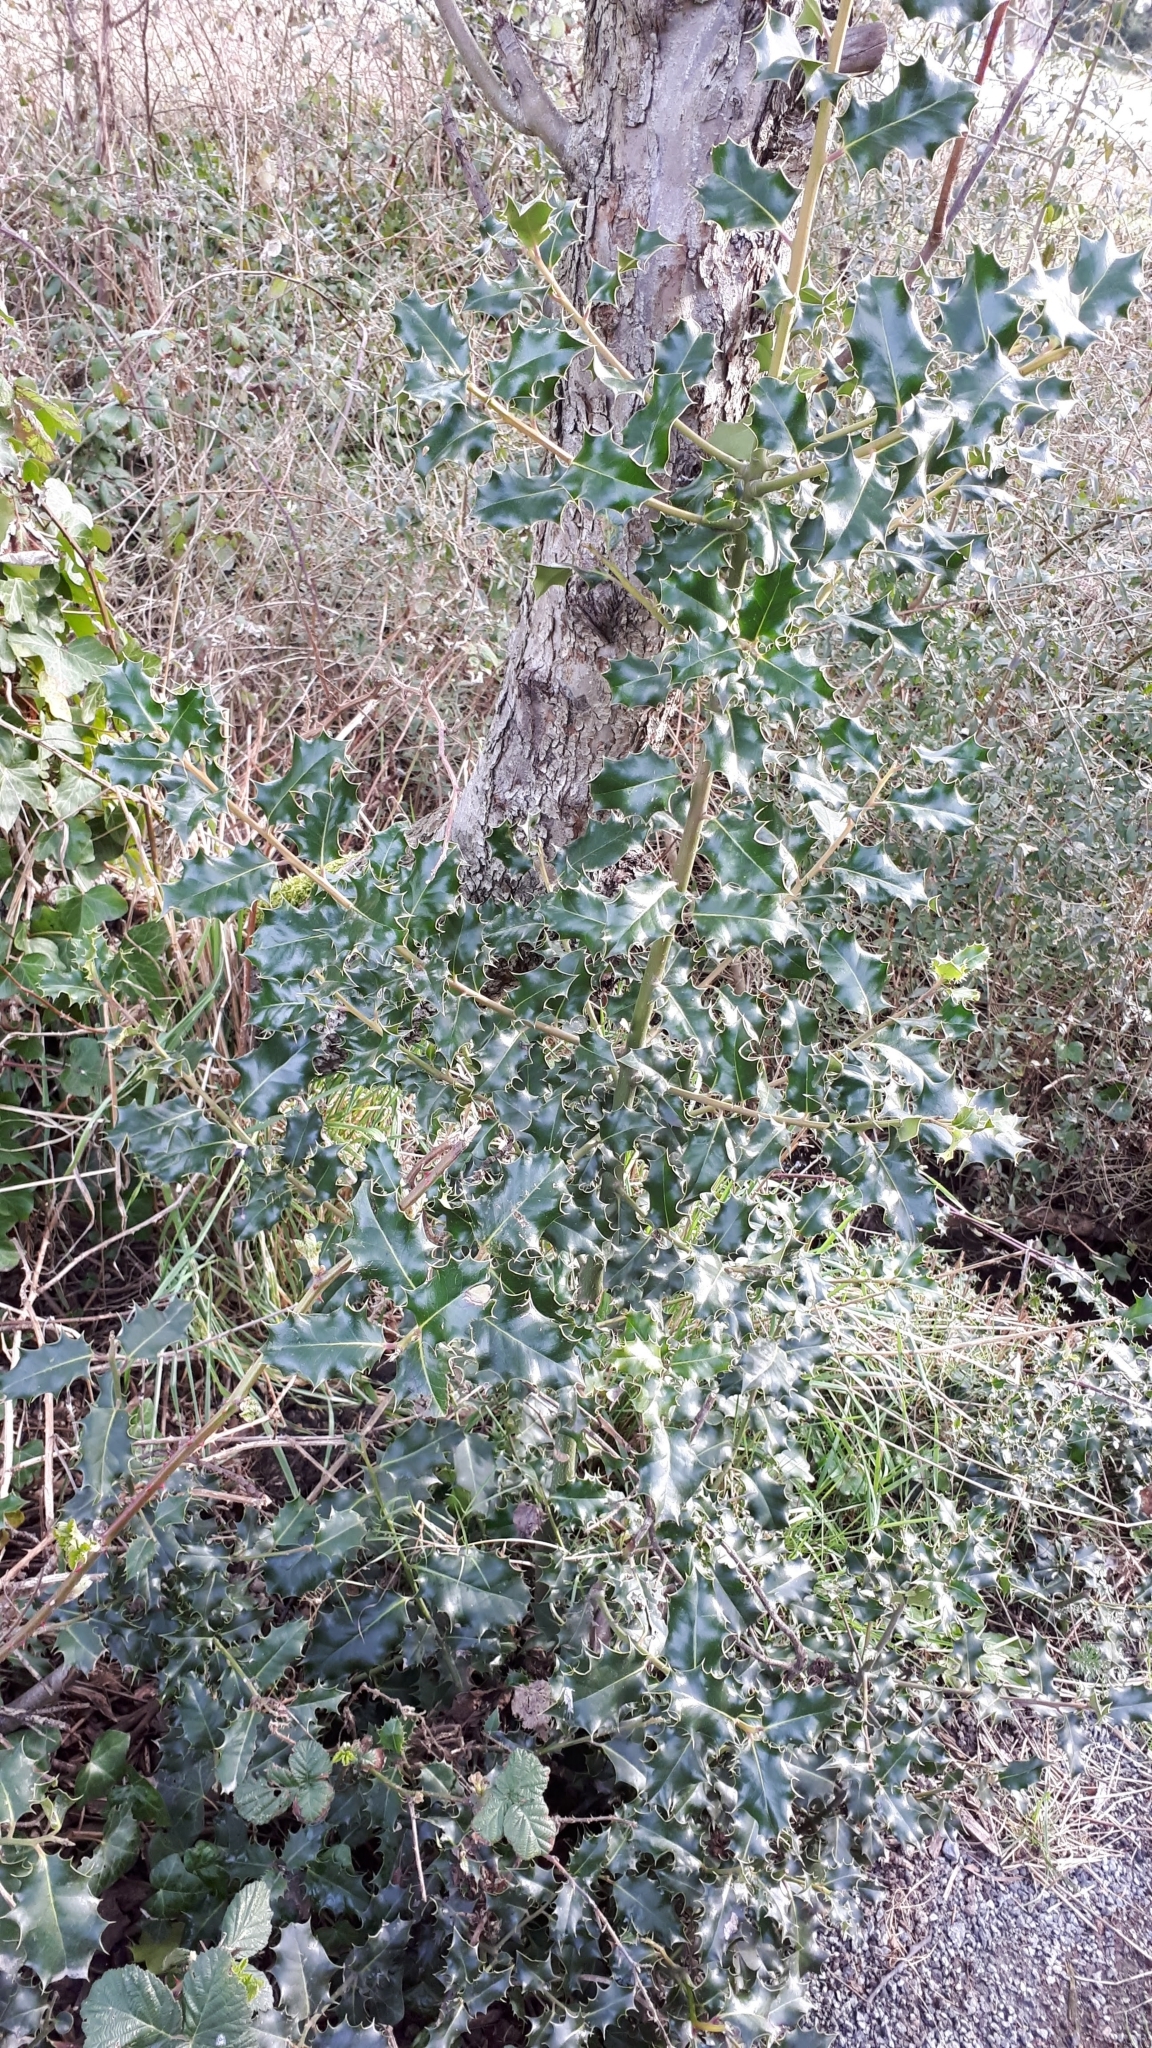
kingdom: Plantae
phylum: Tracheophyta
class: Magnoliopsida
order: Aquifoliales
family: Aquifoliaceae
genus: Ilex
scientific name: Ilex aquifolium
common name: English holly
